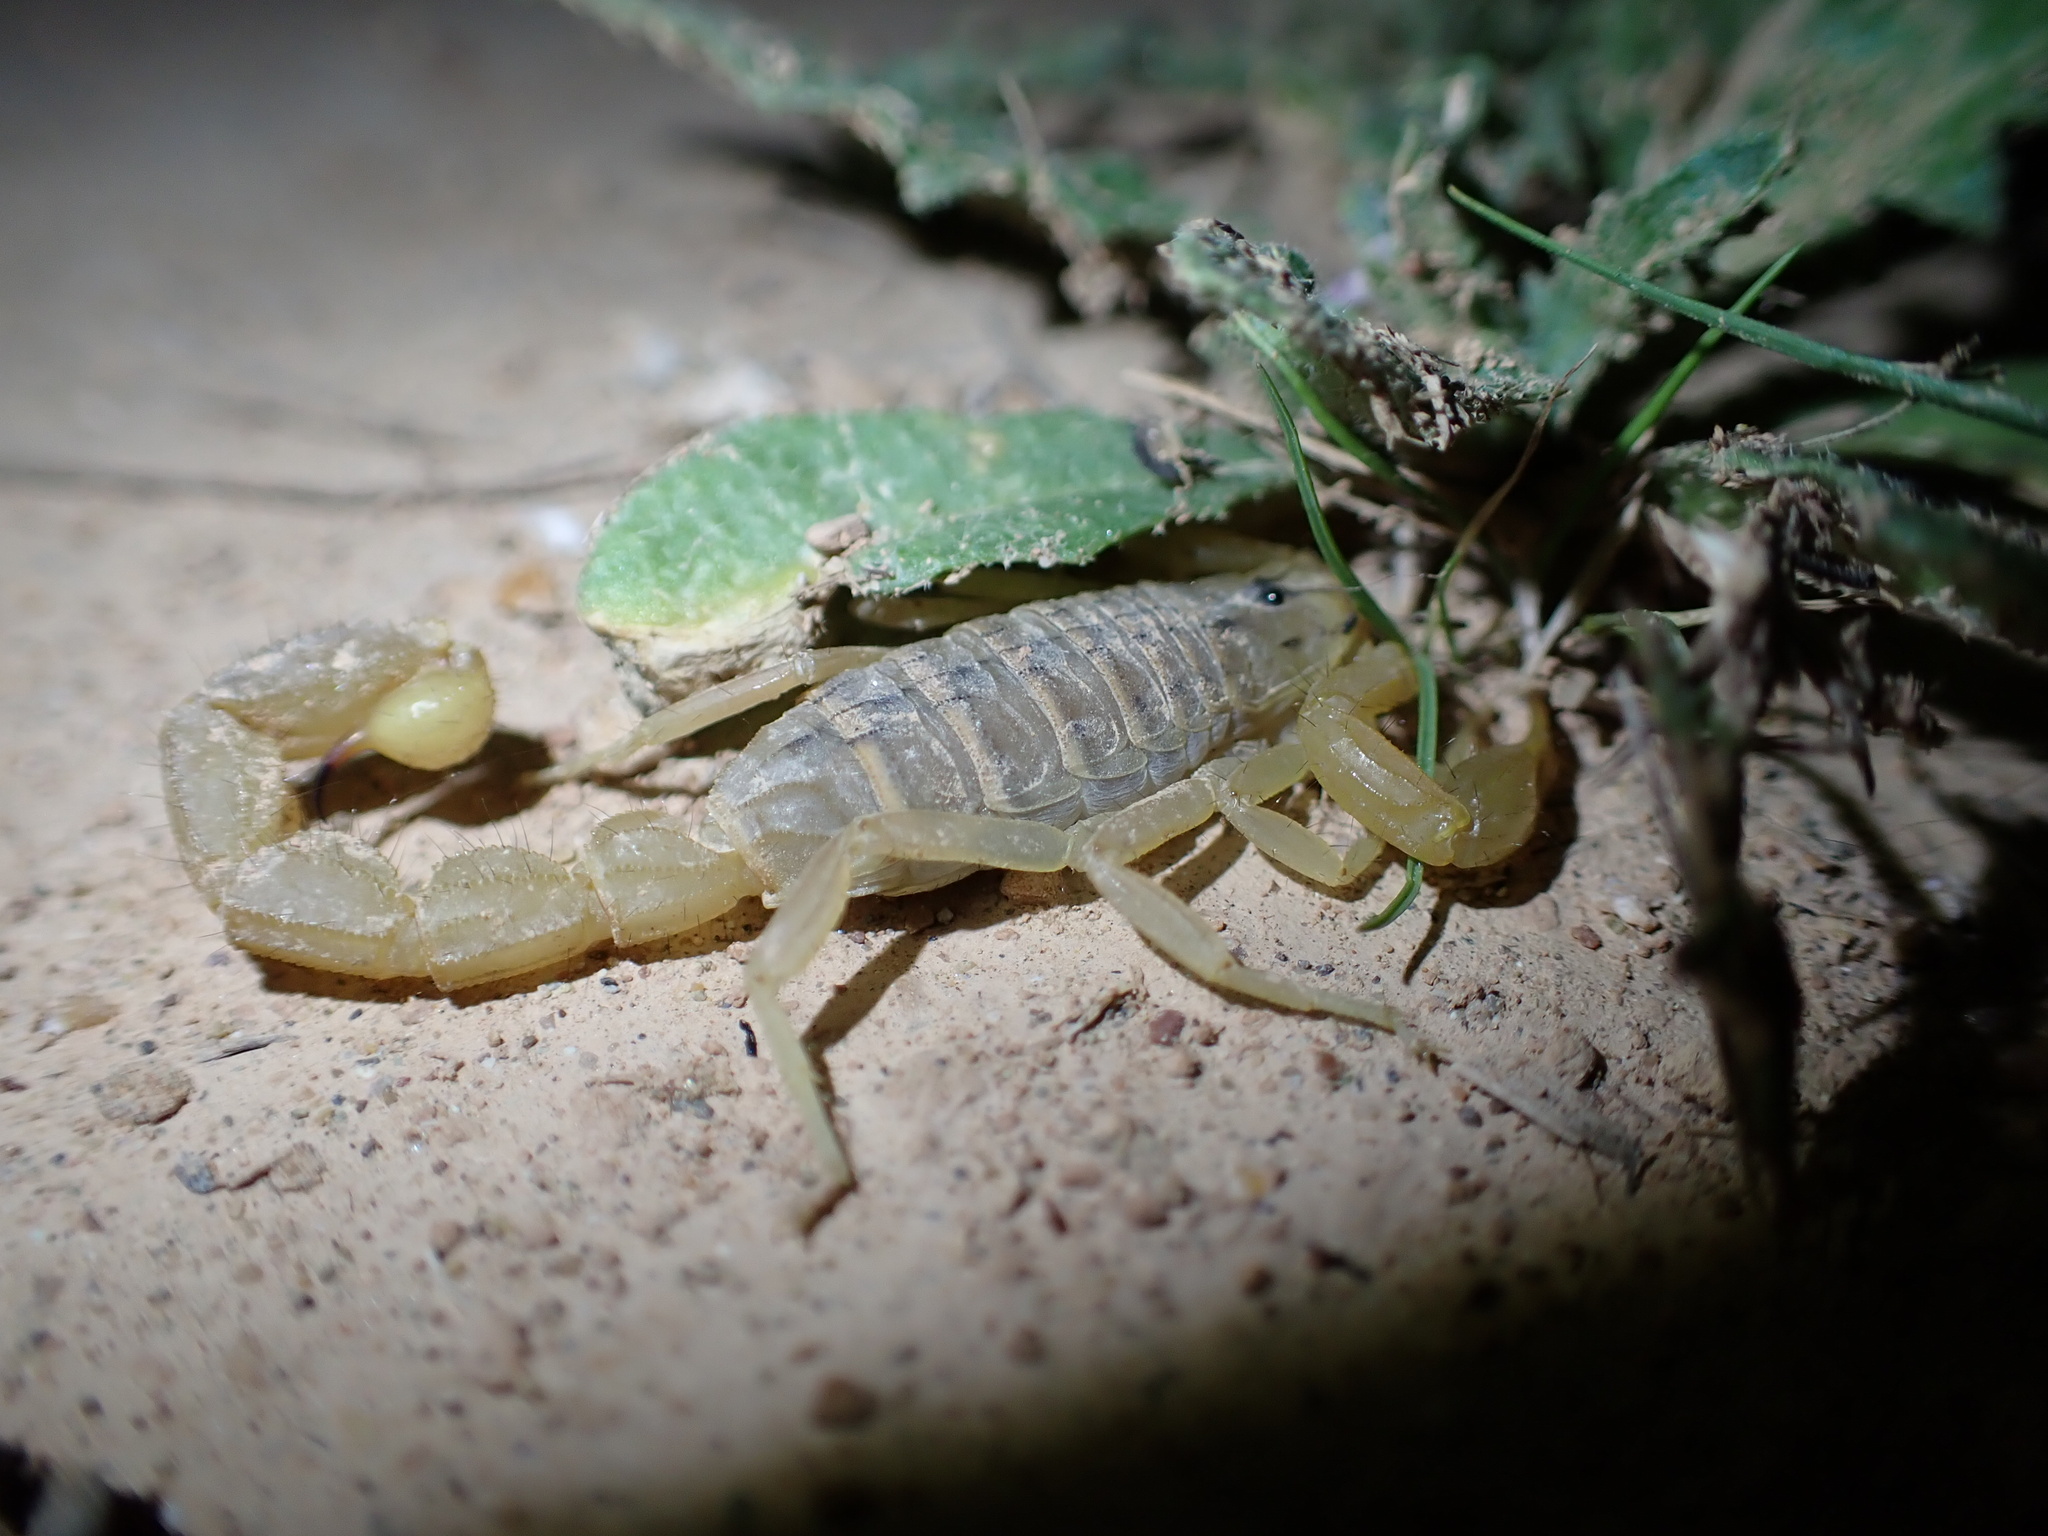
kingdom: Animalia
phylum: Arthropoda
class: Arachnida
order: Scorpiones
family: Buthidae
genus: Mesobuthus
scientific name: Mesobuthus crucittii
